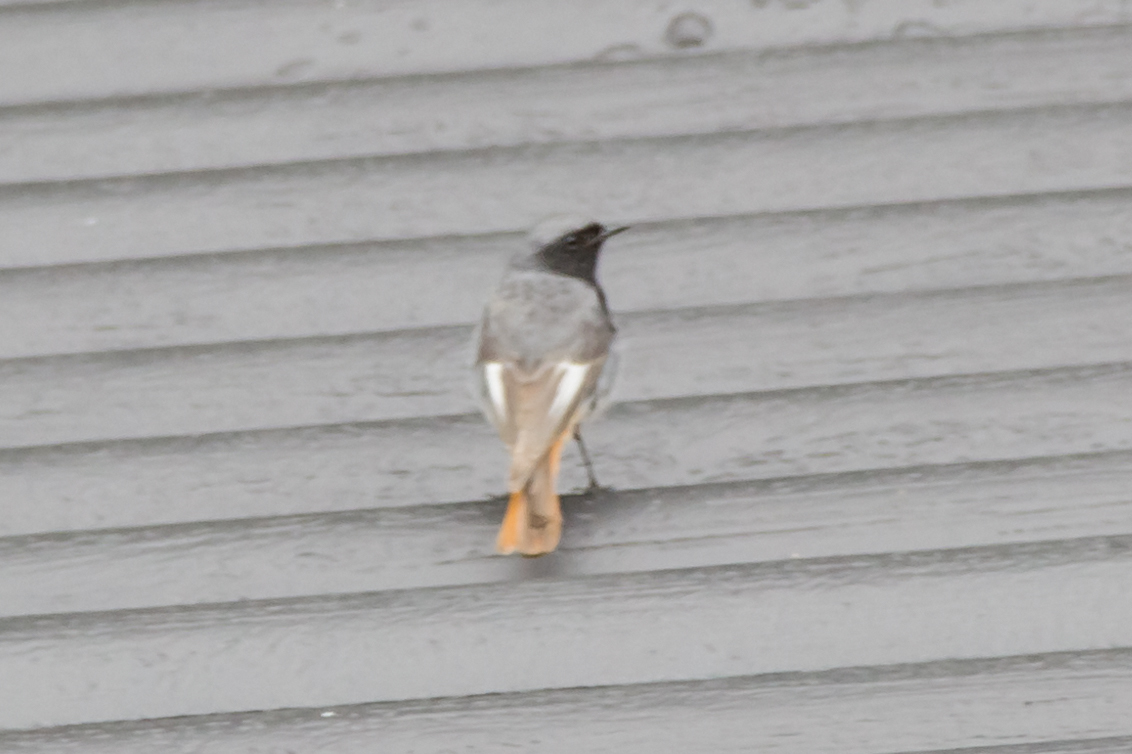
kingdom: Animalia
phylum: Chordata
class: Aves
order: Passeriformes
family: Muscicapidae
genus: Phoenicurus
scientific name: Phoenicurus ochruros
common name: Black redstart
